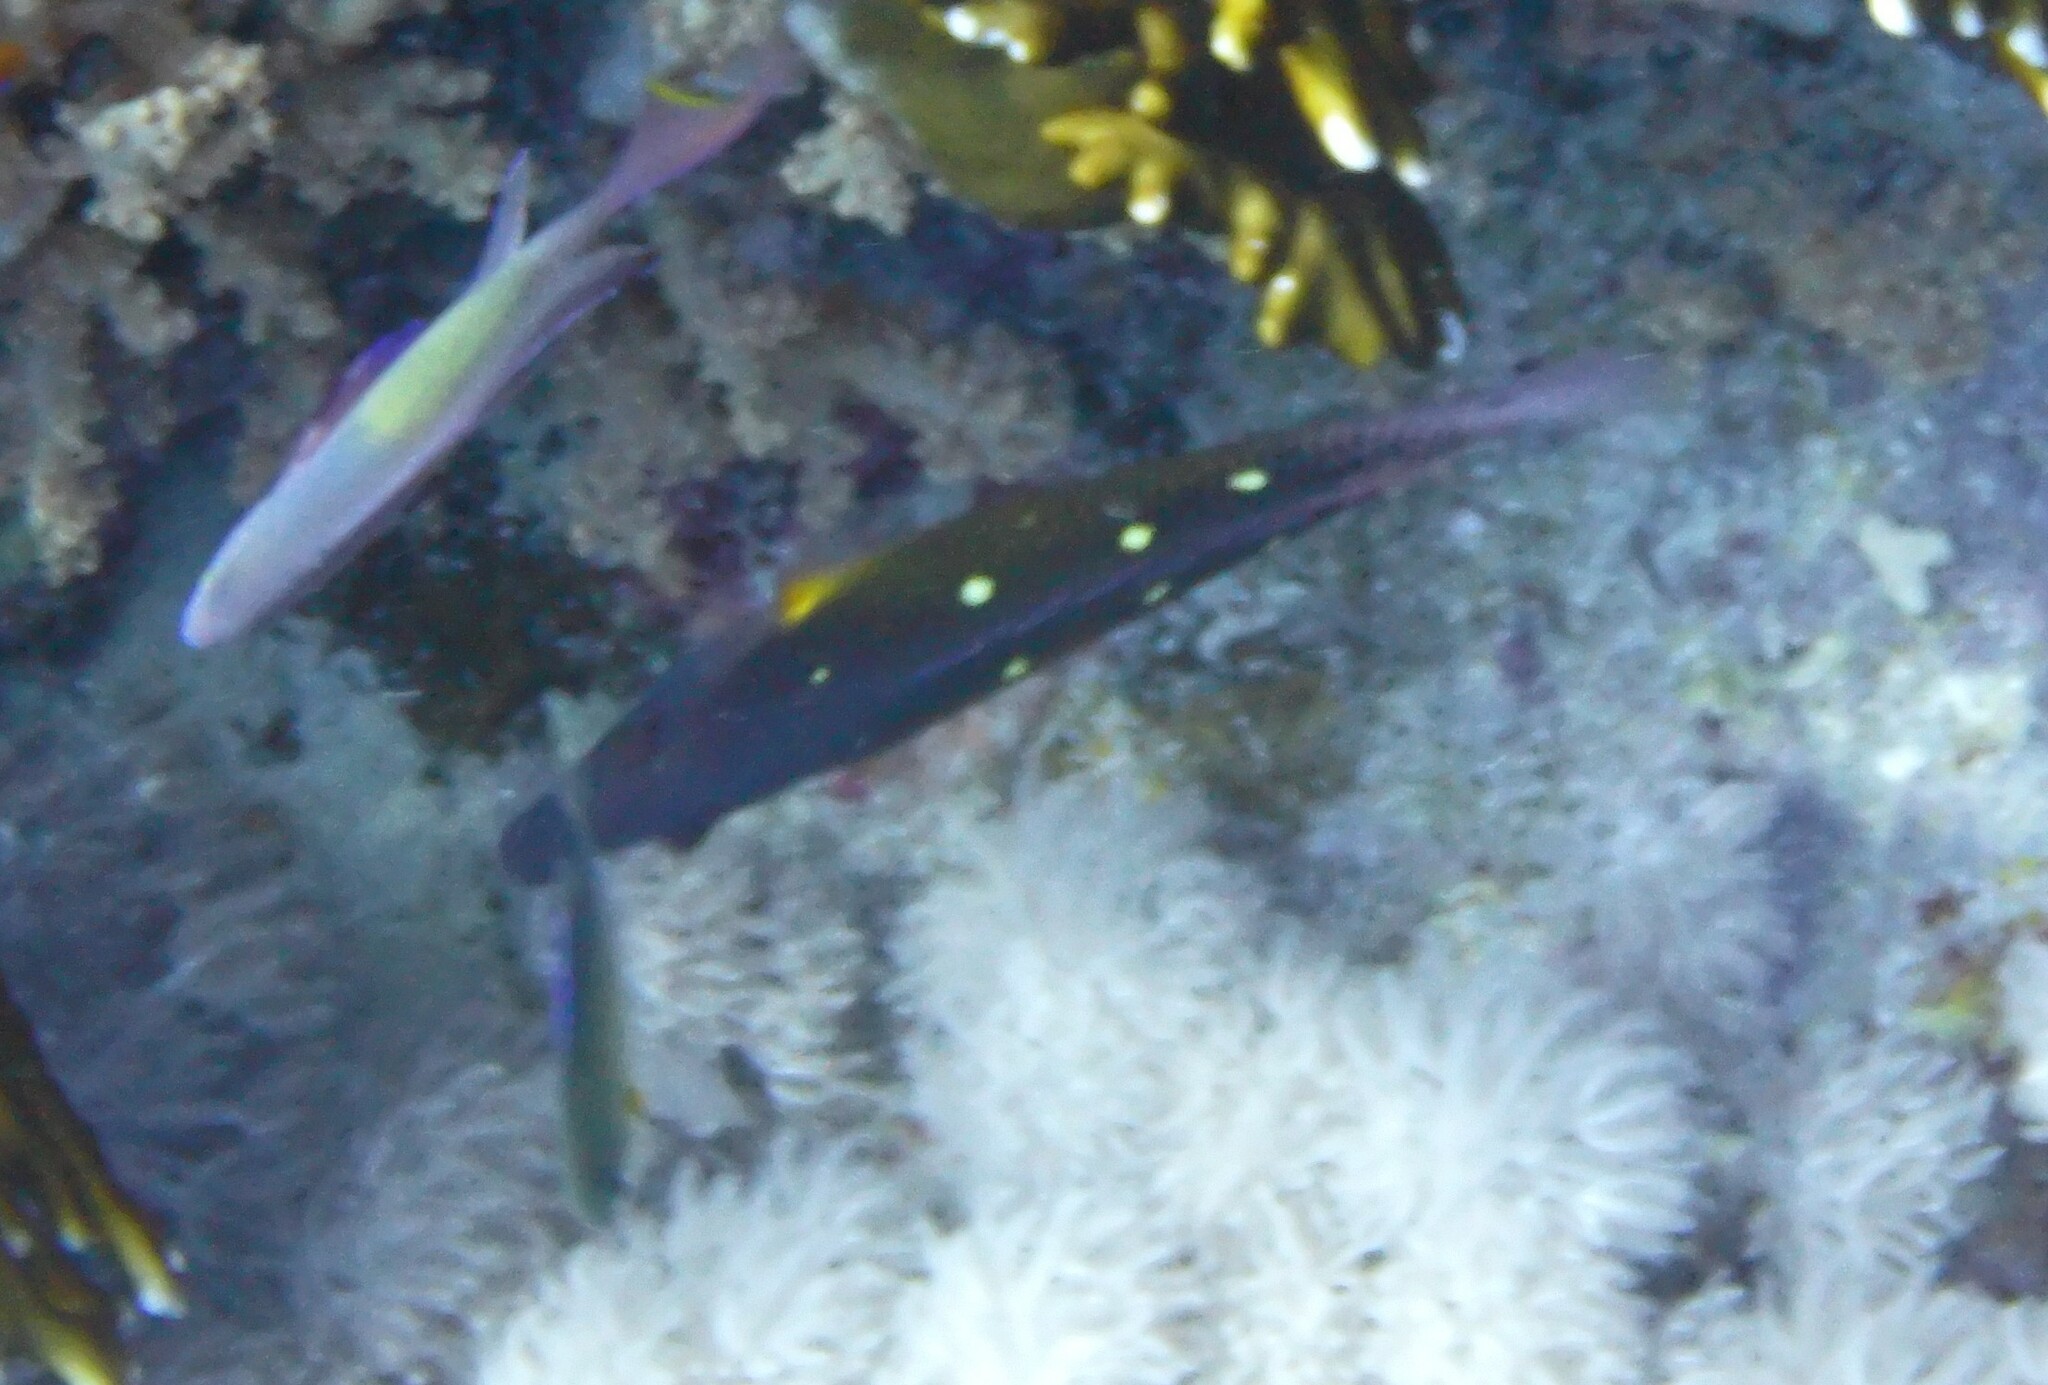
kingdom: Animalia
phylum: Chordata
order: Perciformes
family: Labridae
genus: Bodianus
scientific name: Bodianus diana
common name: Diana's hogfish
